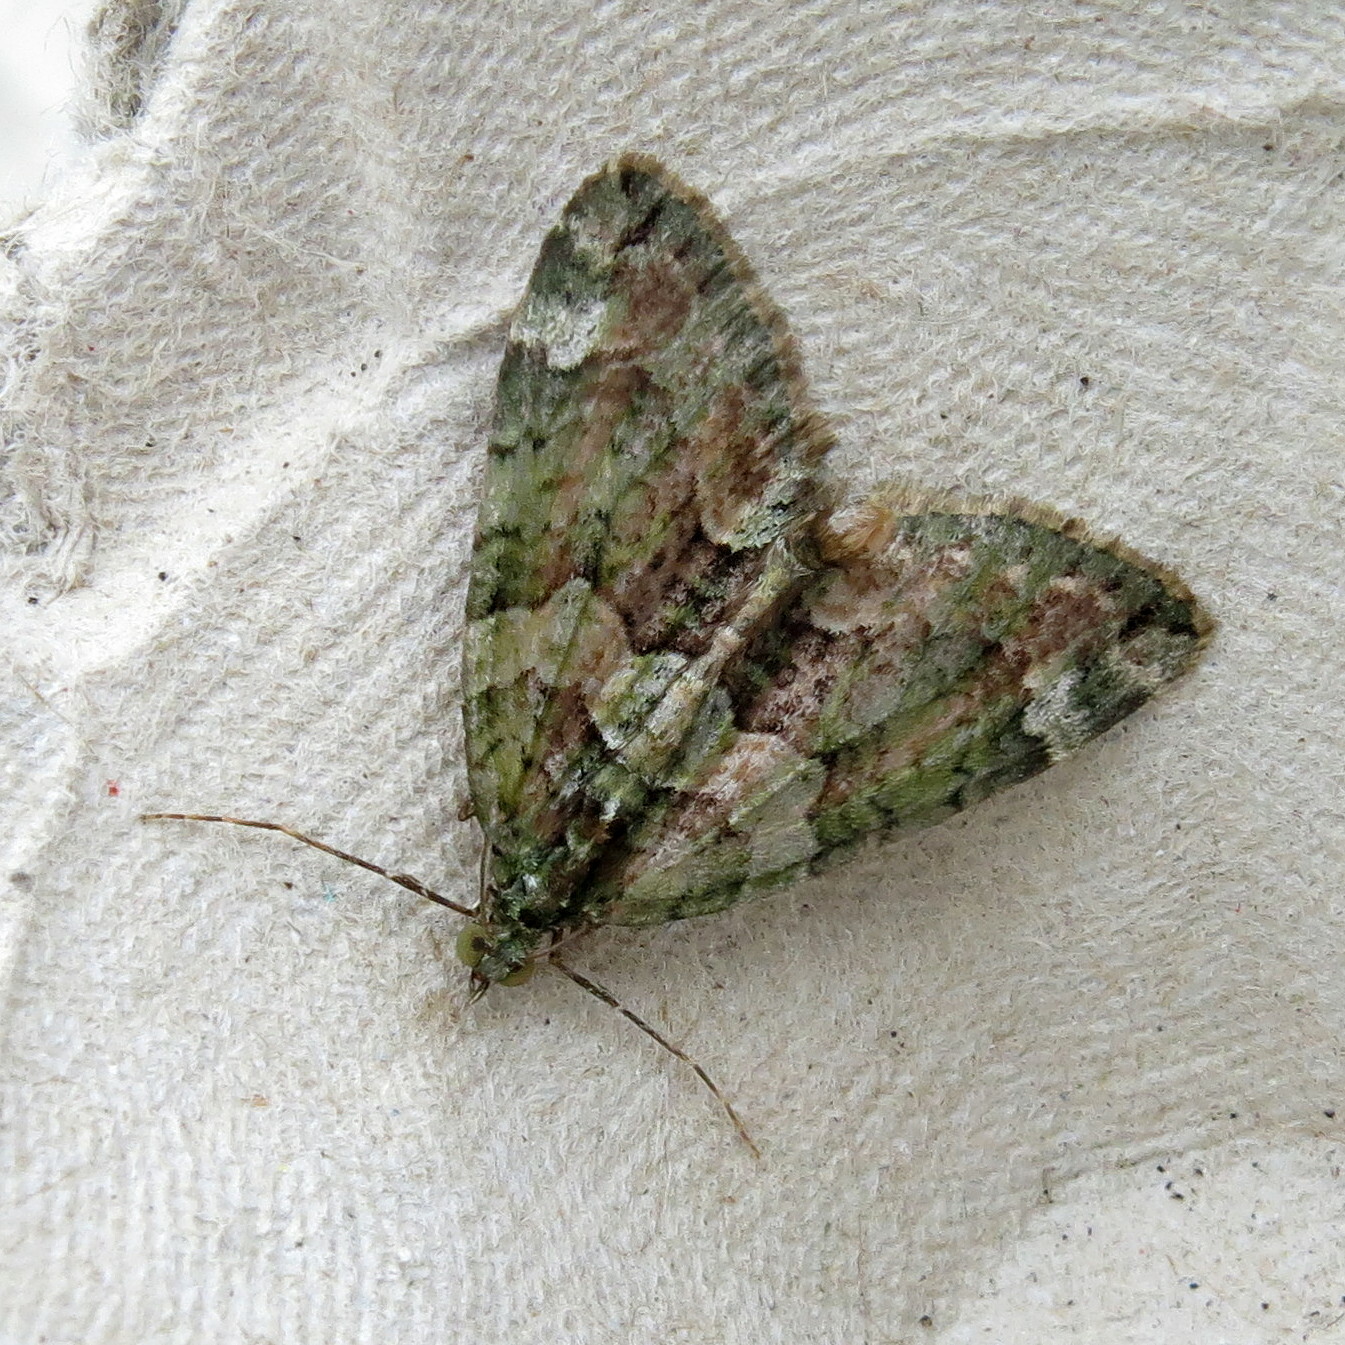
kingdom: Animalia
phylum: Arthropoda
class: Insecta
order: Lepidoptera
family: Geometridae
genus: Chloroclysta
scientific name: Chloroclysta siterata
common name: Red-green carpet
